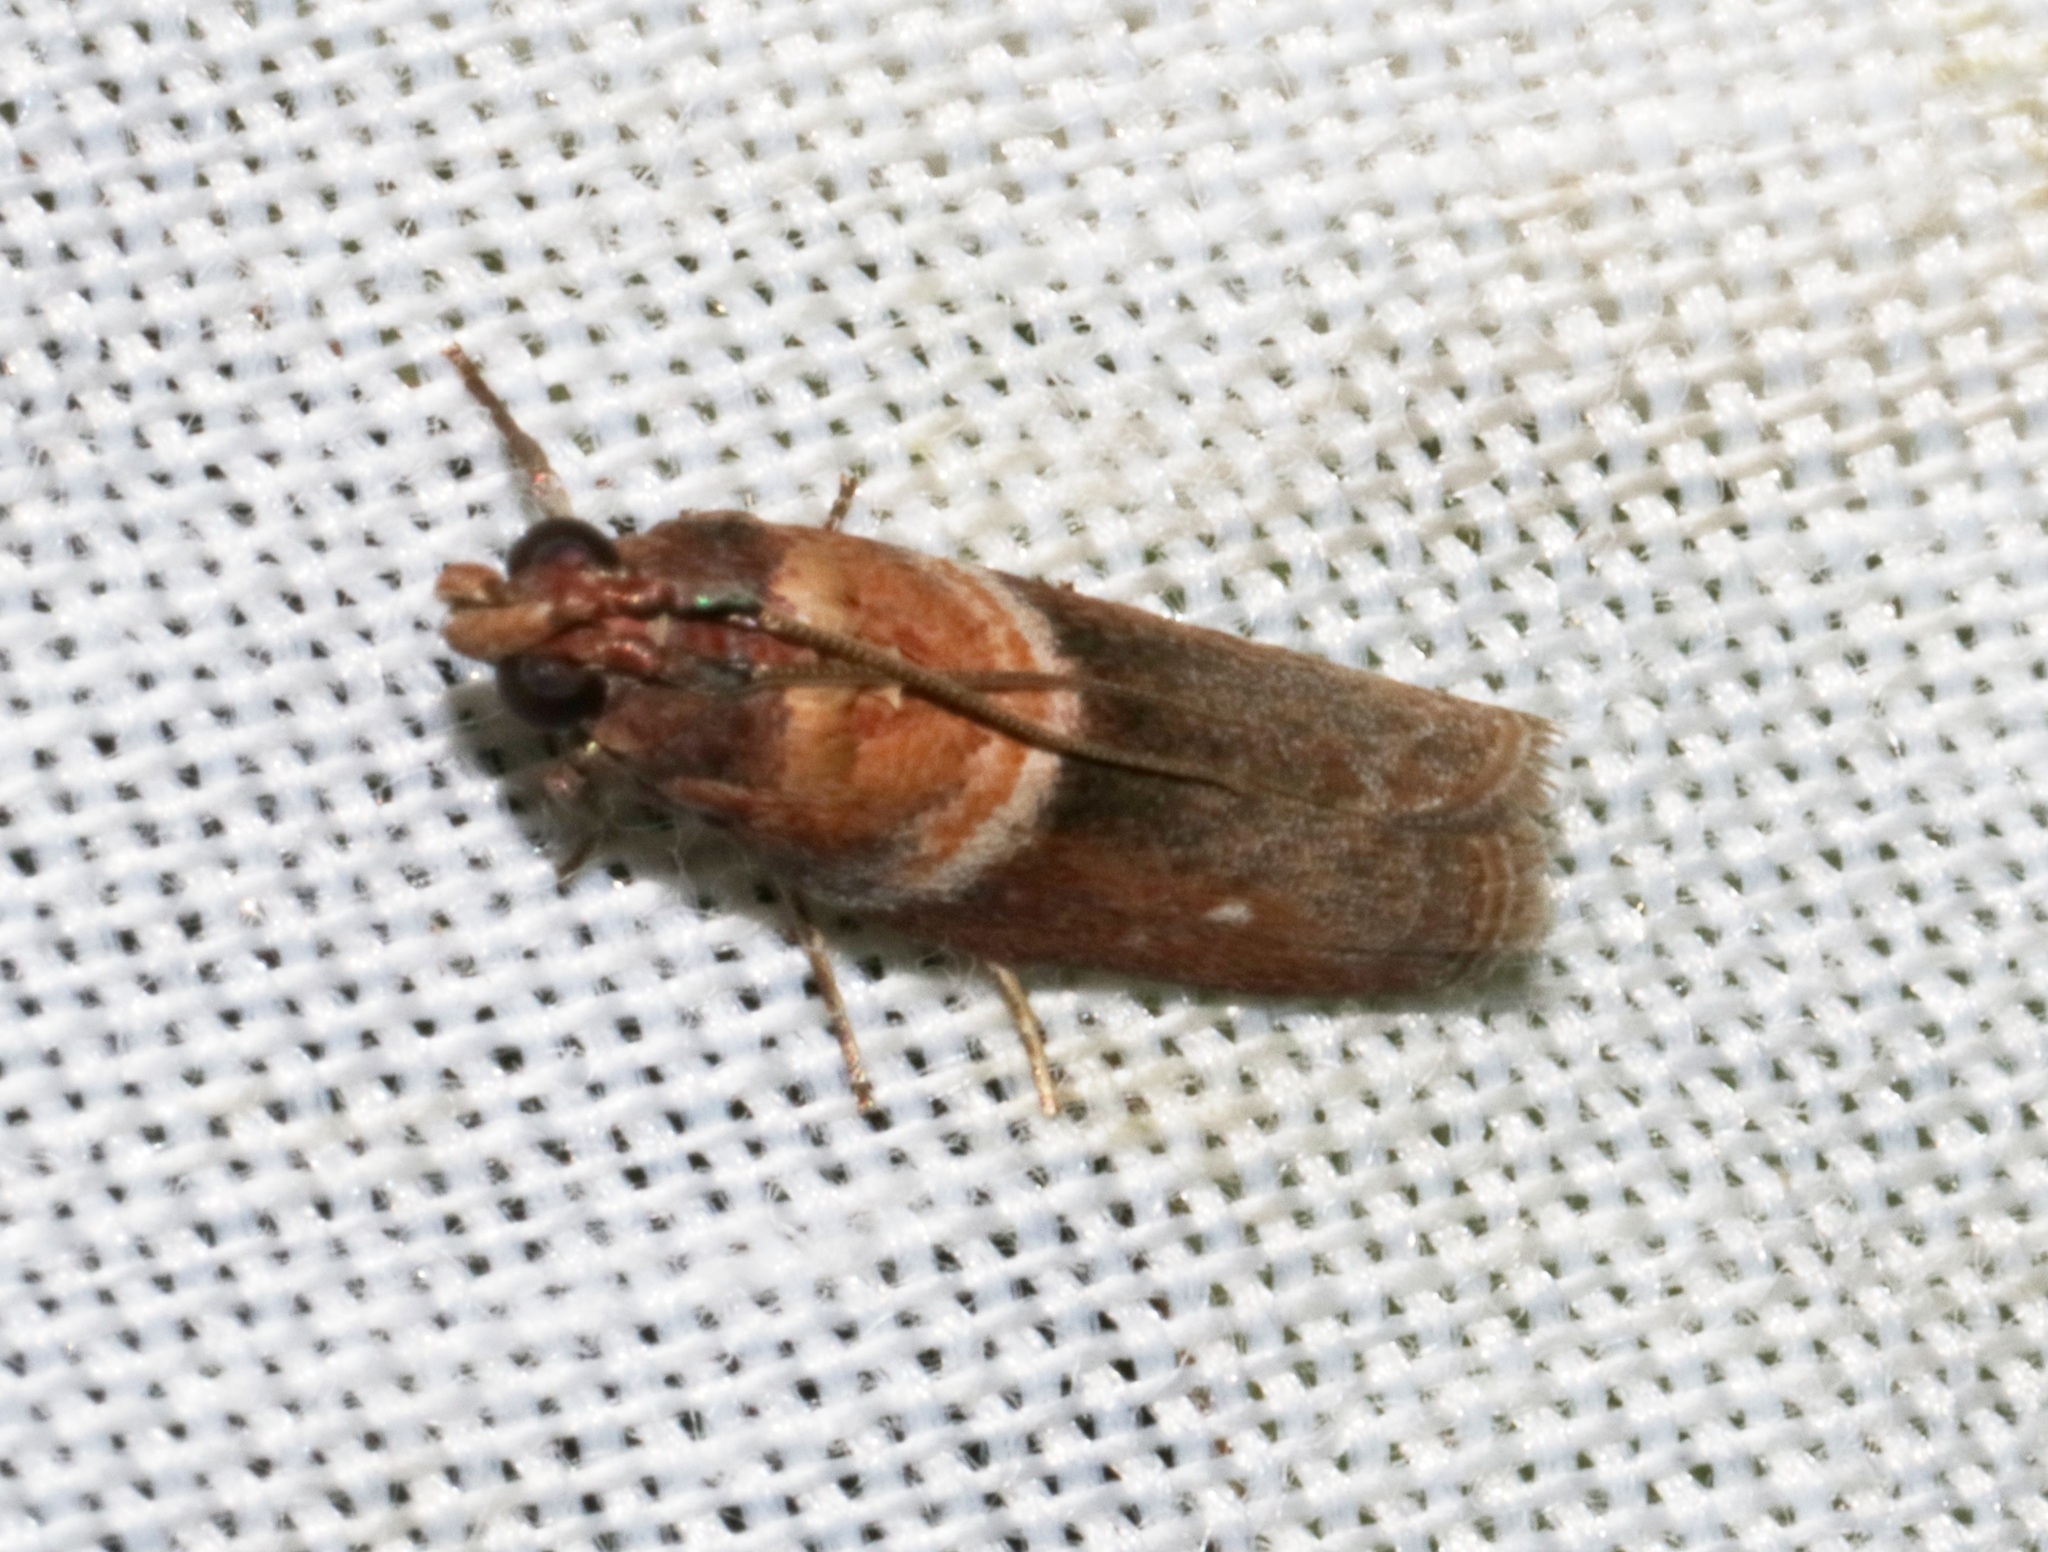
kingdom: Animalia
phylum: Arthropoda
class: Insecta
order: Lepidoptera
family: Pyralidae
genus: Addyme
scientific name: Addyme swinhoeella
